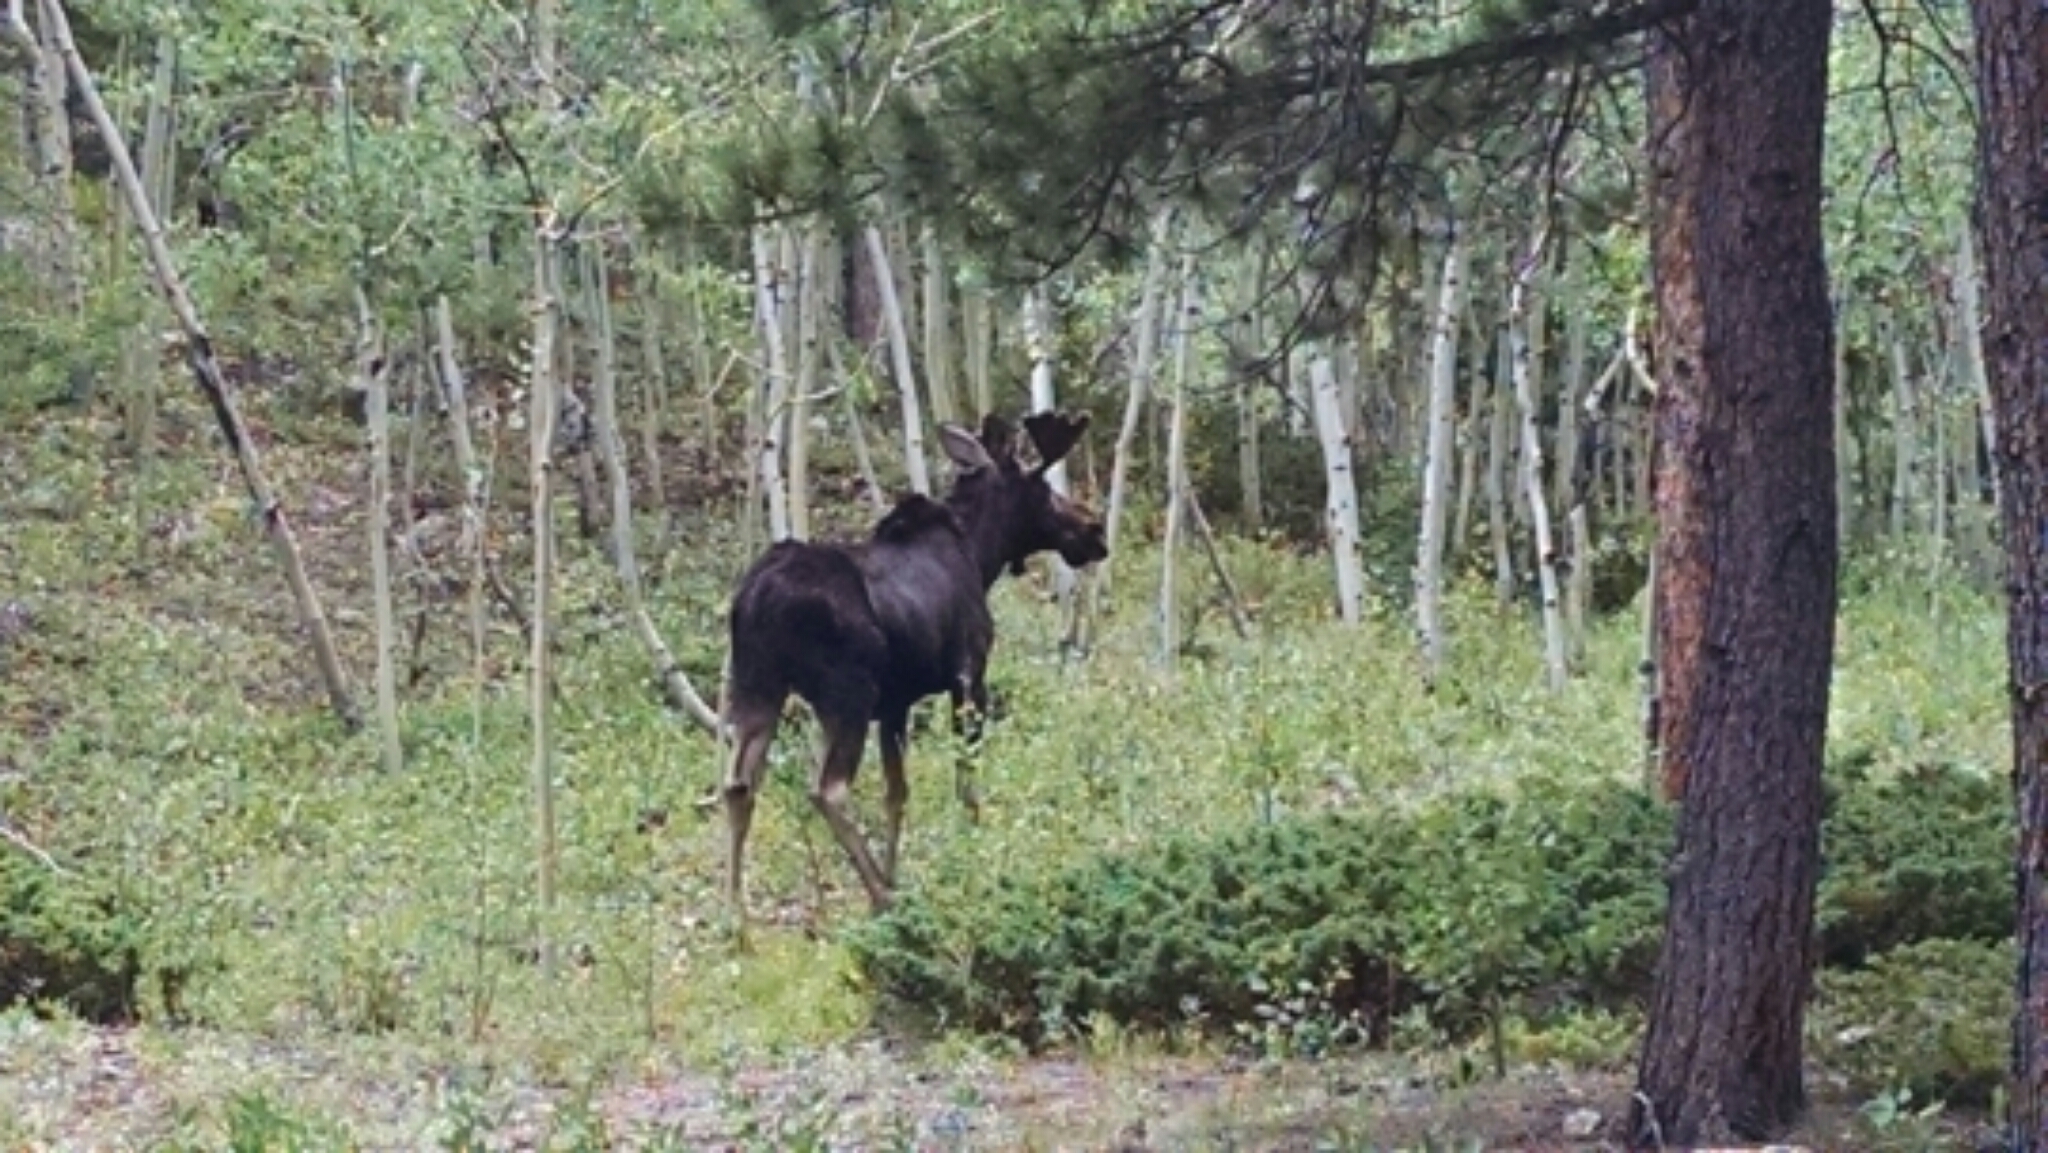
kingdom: Animalia
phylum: Chordata
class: Mammalia
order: Artiodactyla
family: Cervidae
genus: Alces
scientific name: Alces alces
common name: Moose
